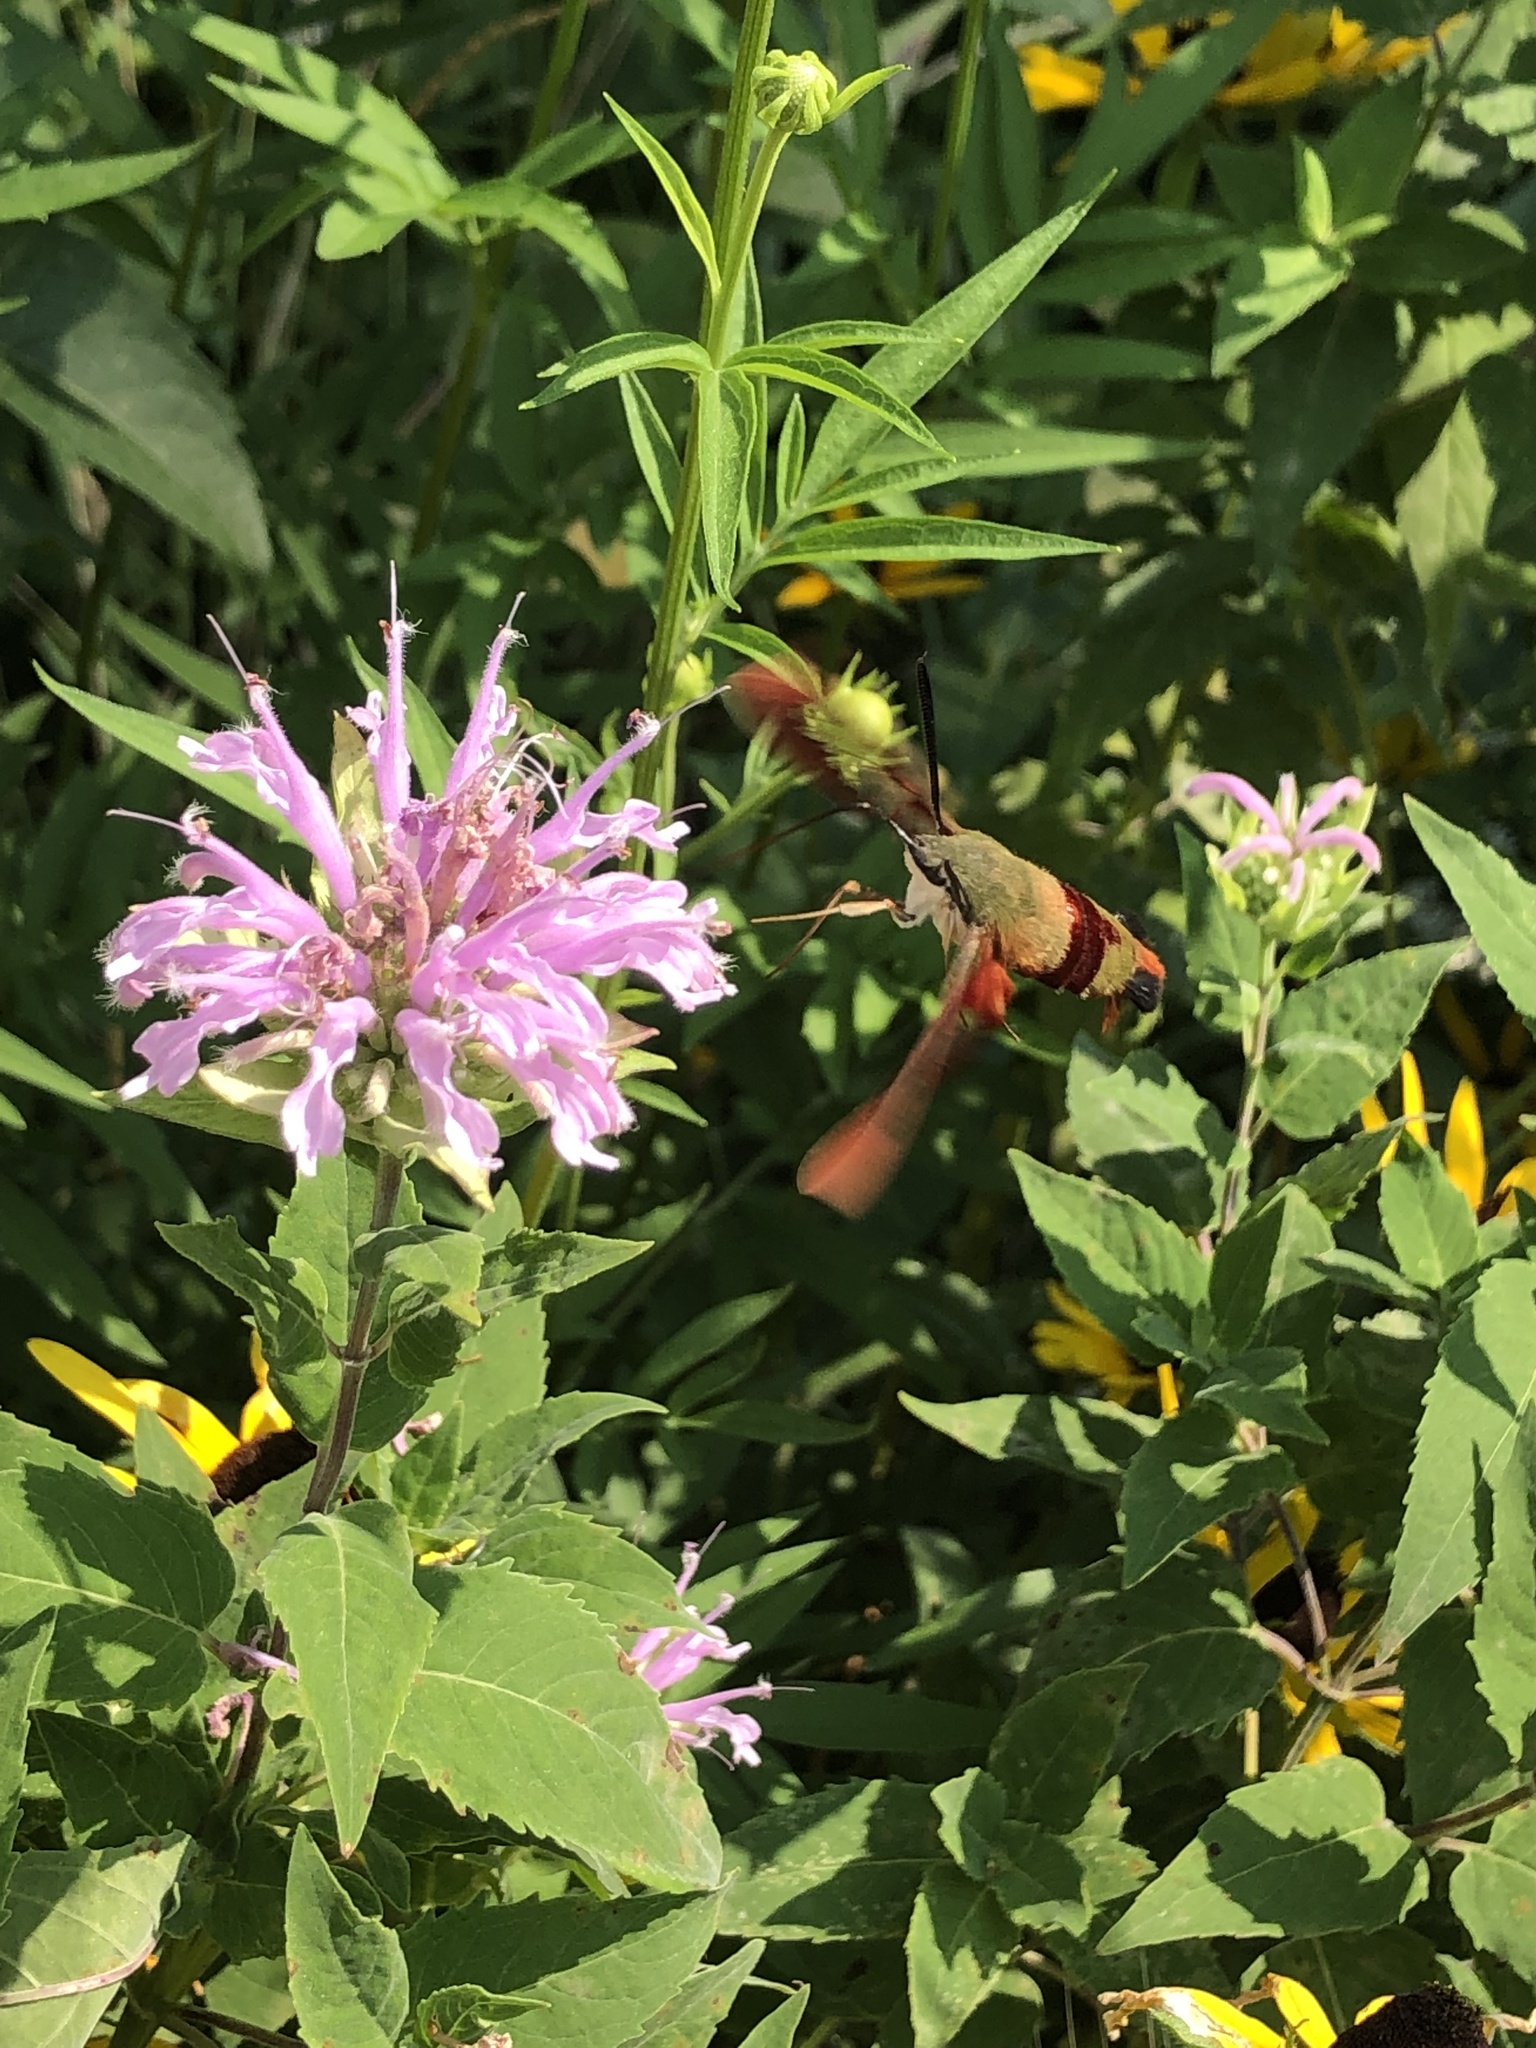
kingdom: Animalia
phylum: Arthropoda
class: Insecta
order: Lepidoptera
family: Sphingidae
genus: Hemaris
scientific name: Hemaris thysbe
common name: Common clear-wing
